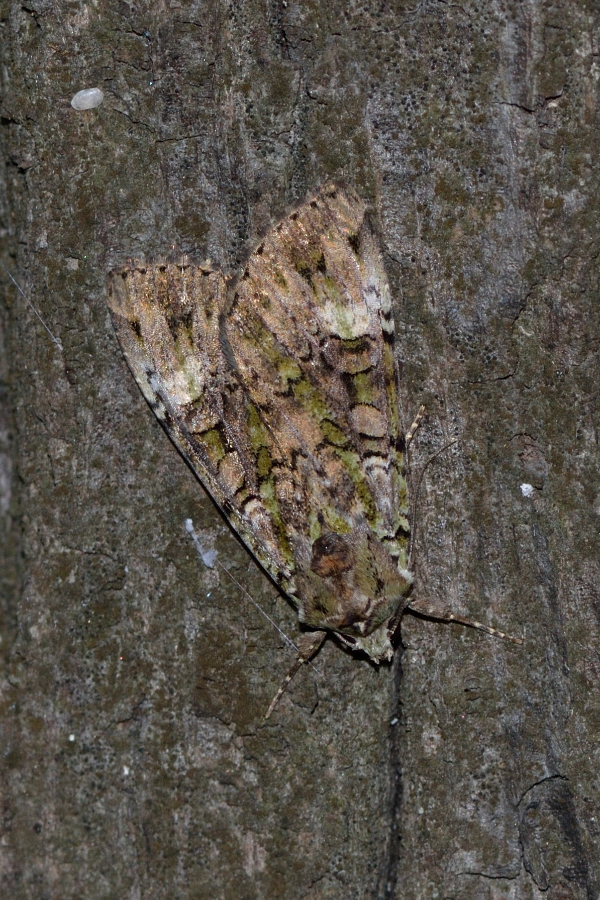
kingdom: Animalia
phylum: Arthropoda
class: Insecta
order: Lepidoptera
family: Noctuidae
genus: Anaplectoides
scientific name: Anaplectoides prasina
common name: Green arches
